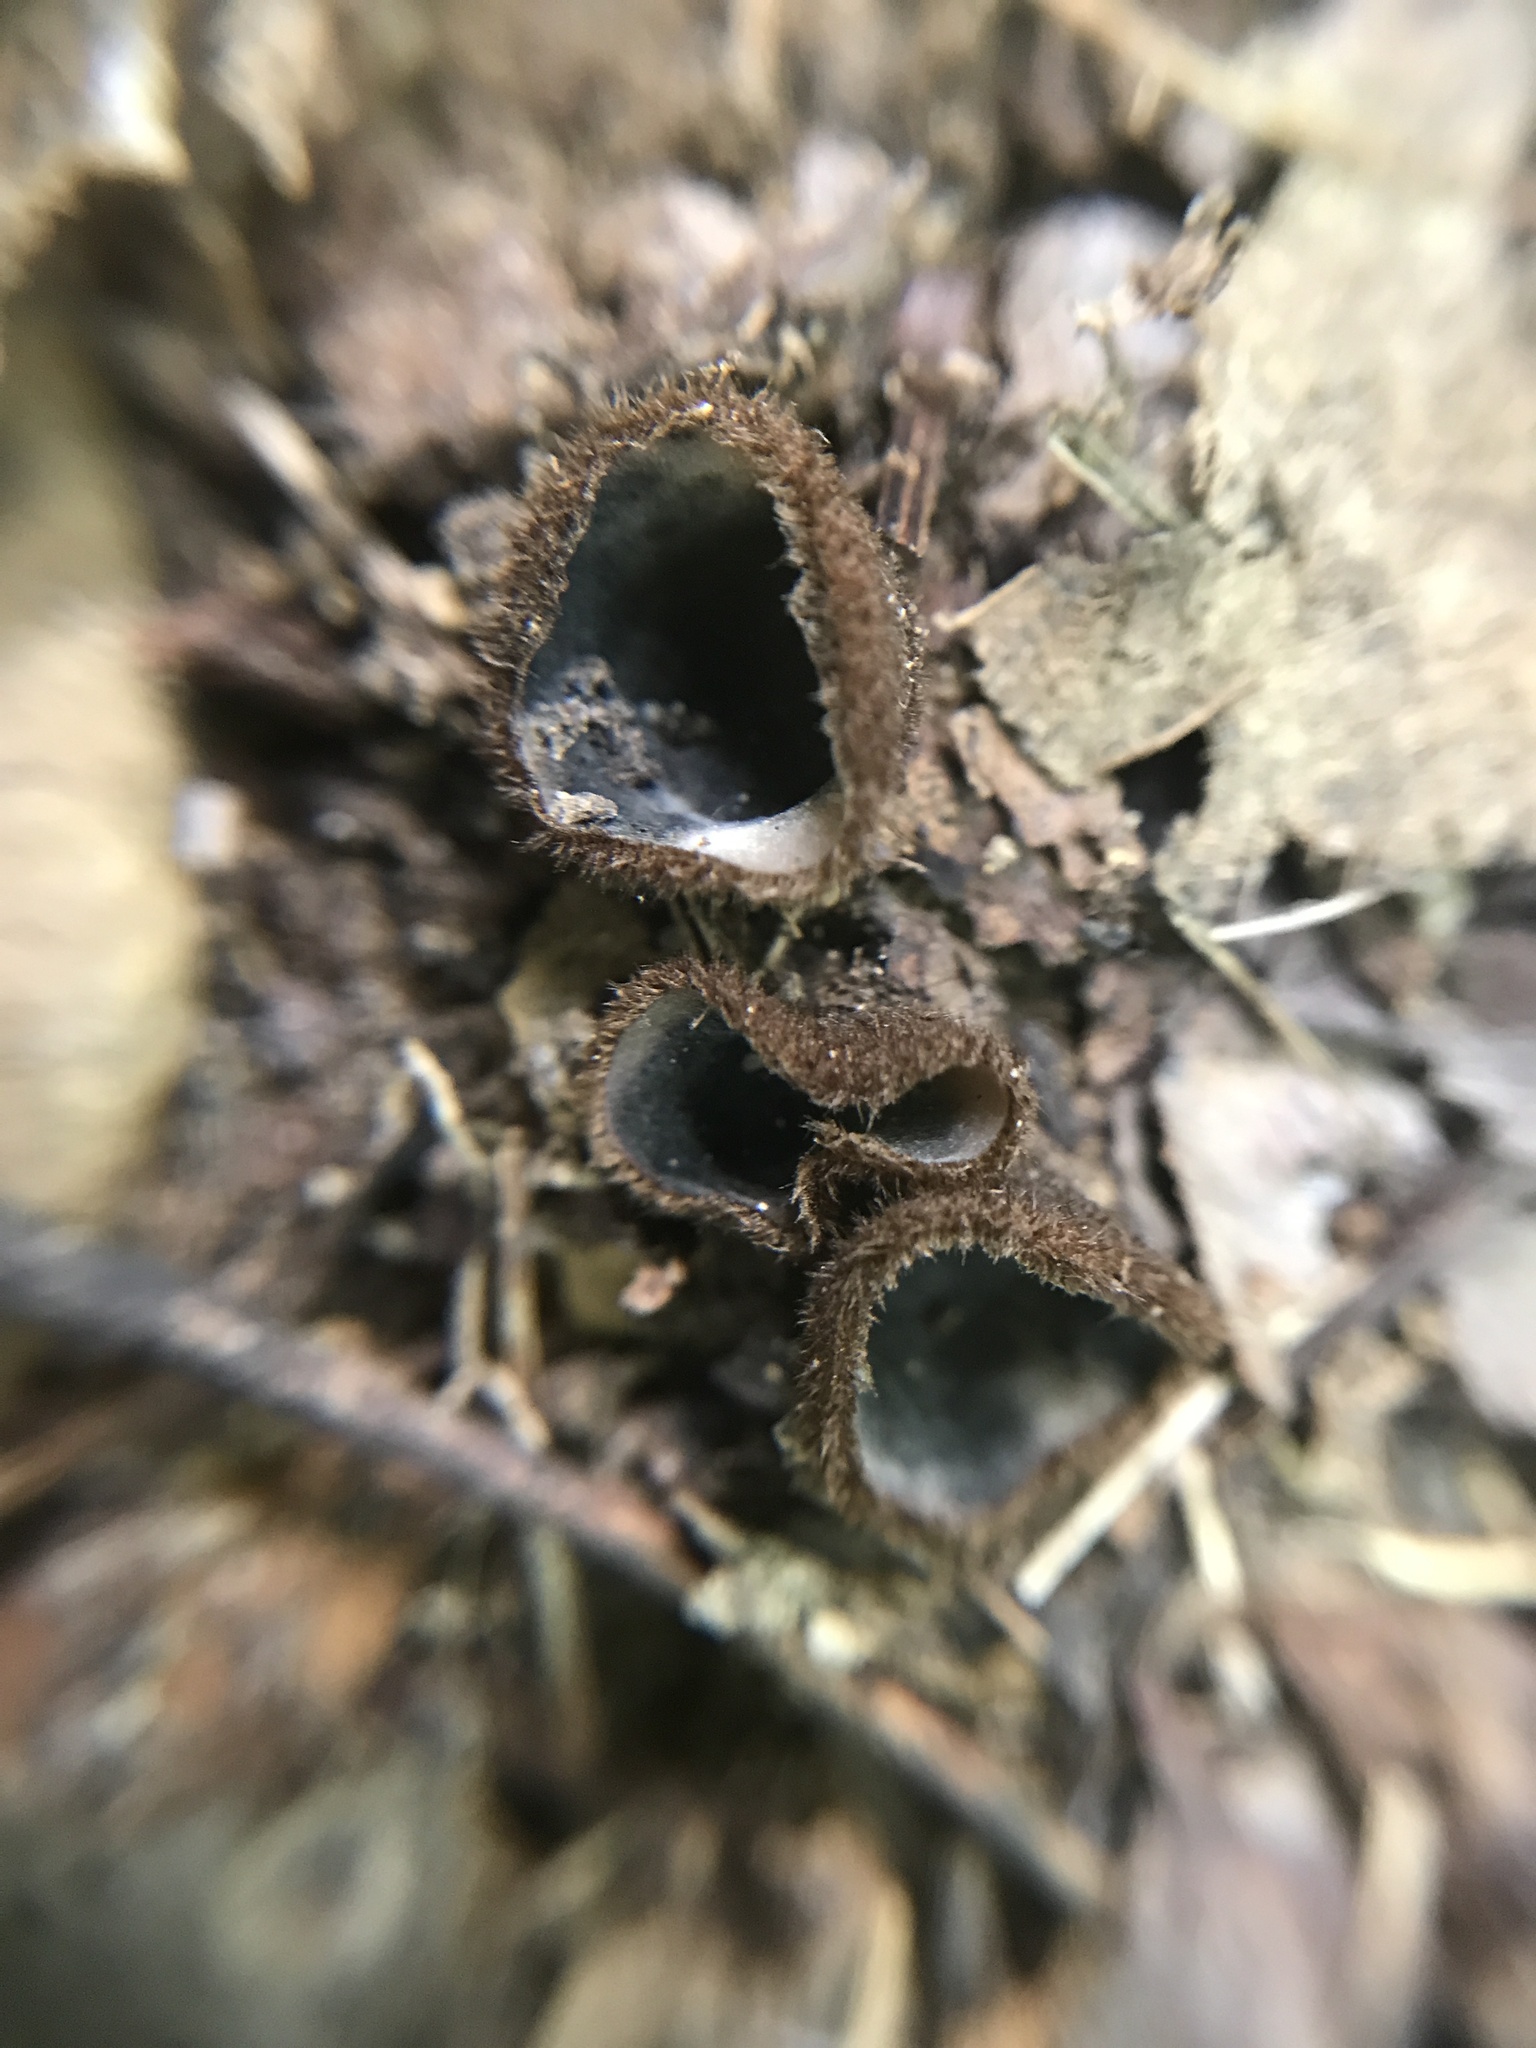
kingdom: Fungi
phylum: Ascomycota
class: Pezizomycetes
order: Pezizales
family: Pyronemataceae
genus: Humaria
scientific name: Humaria hemisphaerica
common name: Glazed cup
